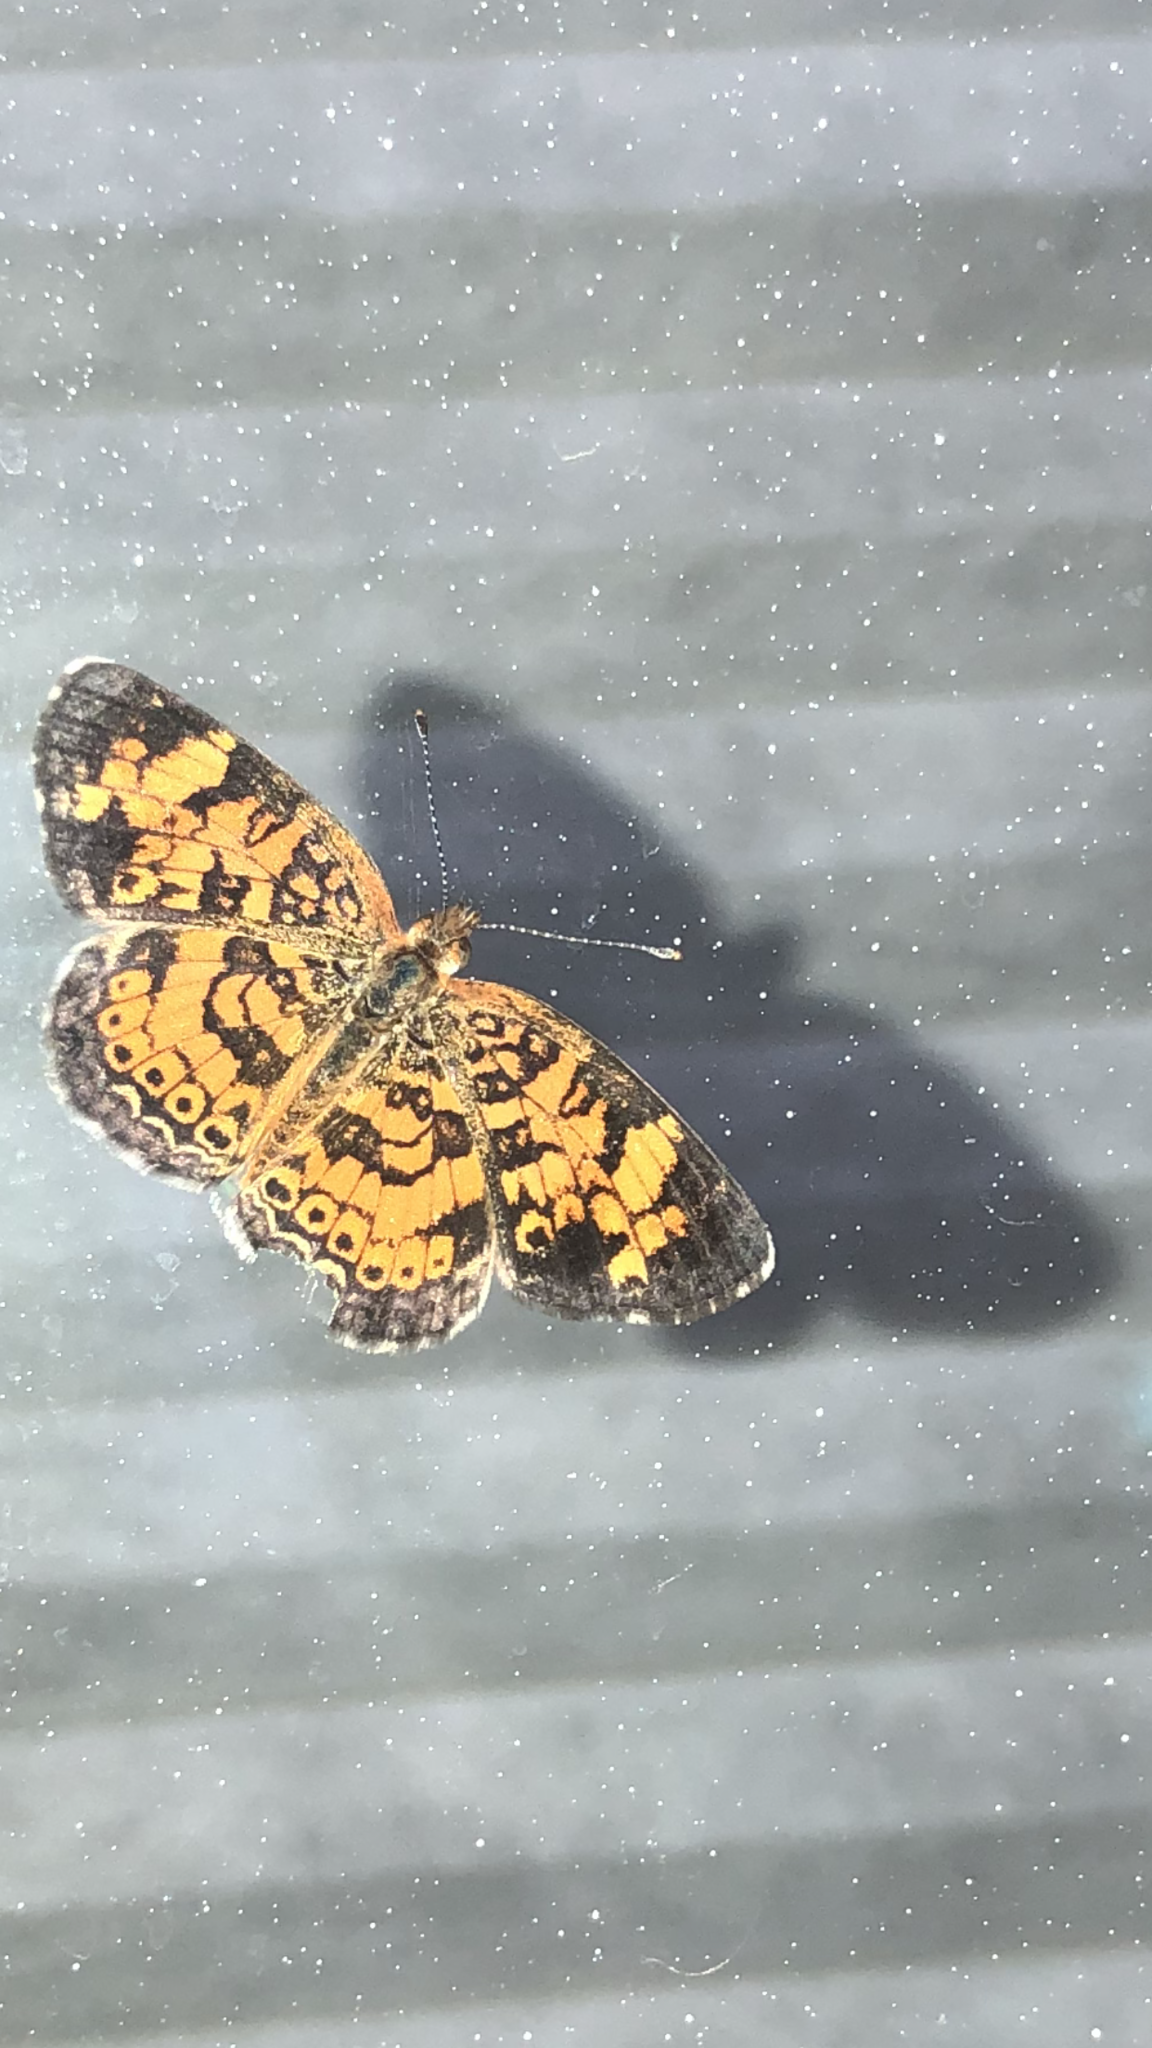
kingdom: Animalia
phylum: Arthropoda
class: Insecta
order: Lepidoptera
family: Nymphalidae
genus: Phyciodes
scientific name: Phyciodes tharos
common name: Pearl crescent
